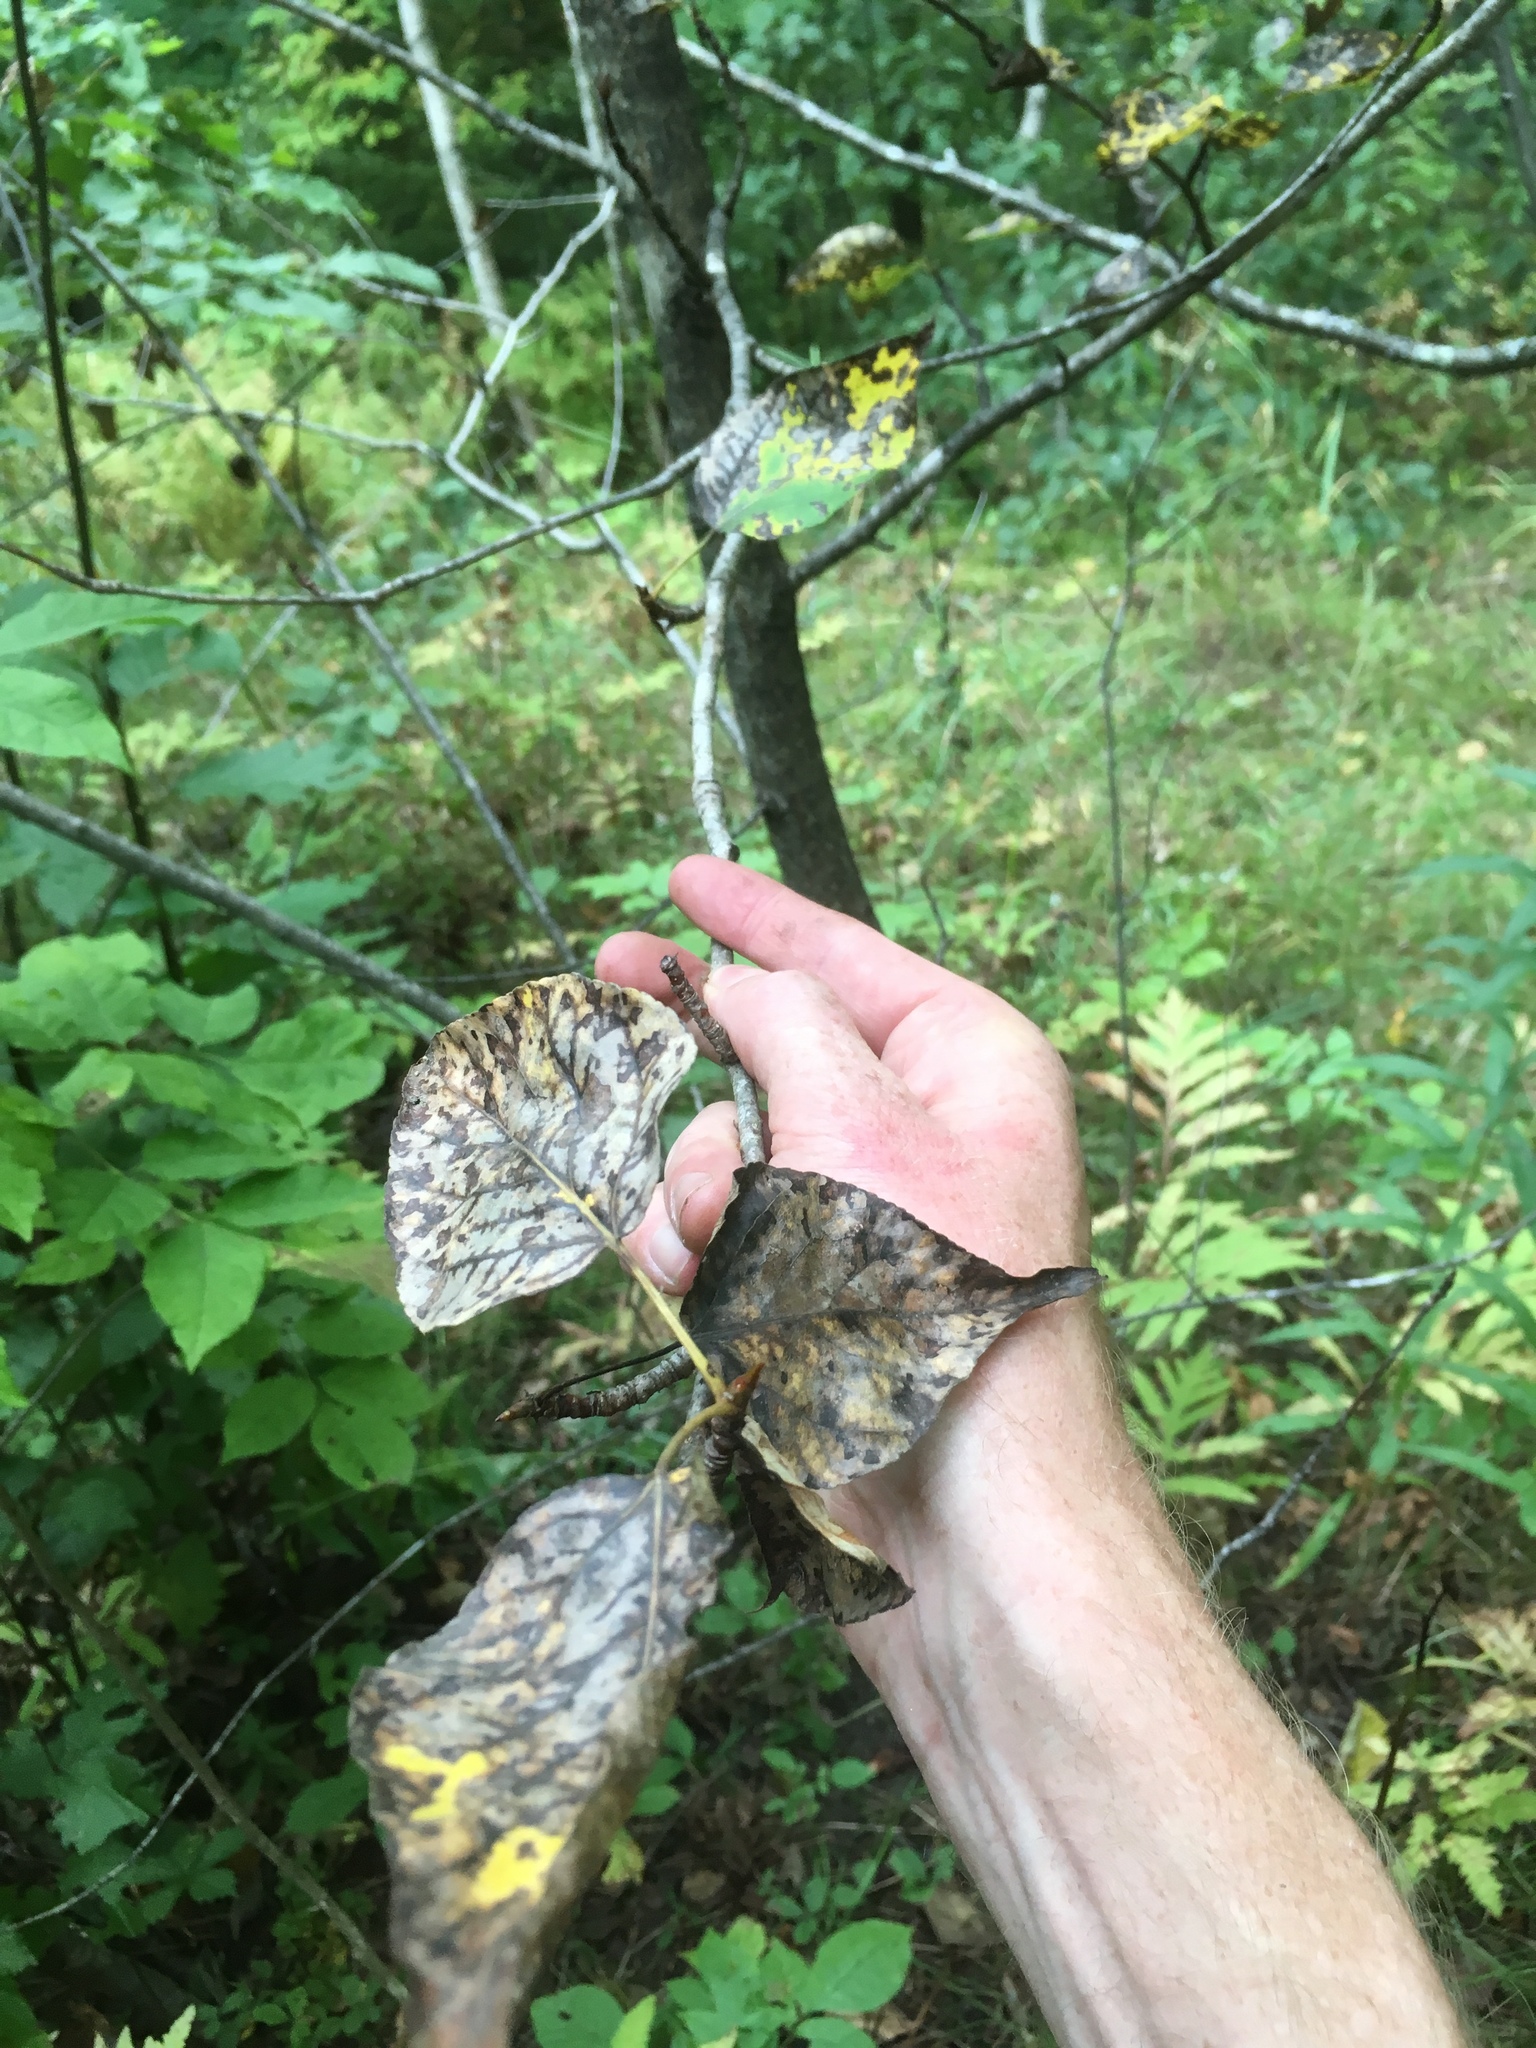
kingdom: Plantae
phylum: Tracheophyta
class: Magnoliopsida
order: Malpighiales
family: Salicaceae
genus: Populus
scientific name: Populus balsamifera
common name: Balsam poplar
